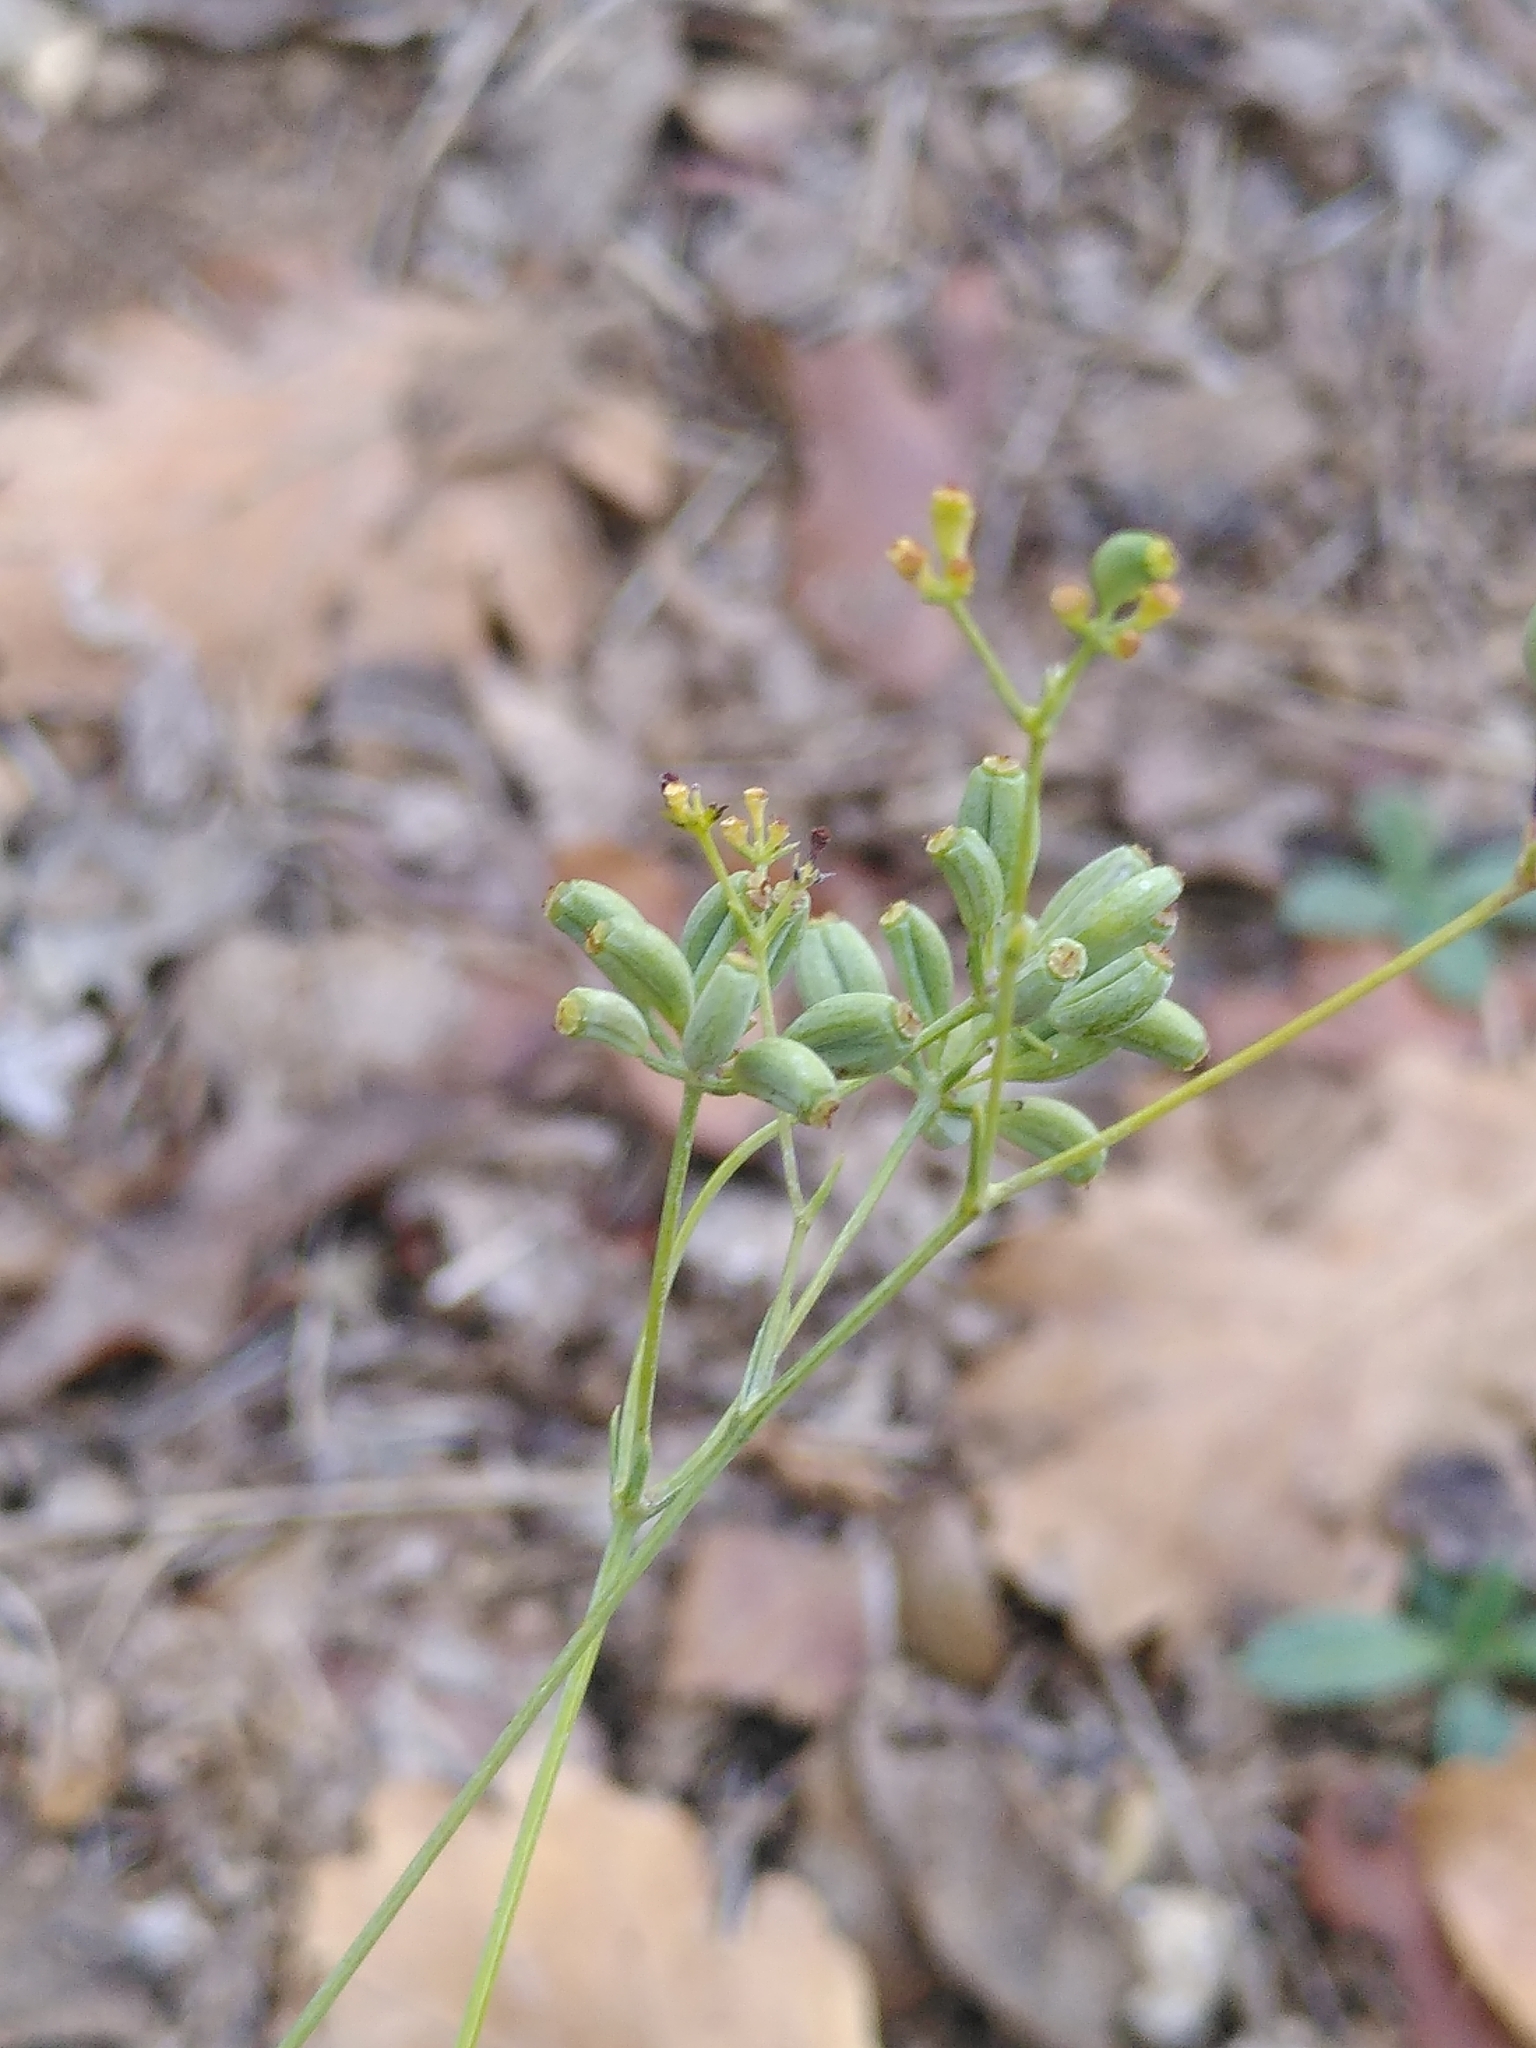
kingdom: Plantae
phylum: Tracheophyta
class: Magnoliopsida
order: Apiales
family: Apiaceae
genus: Bupleurum
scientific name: Bupleurum rigidum
